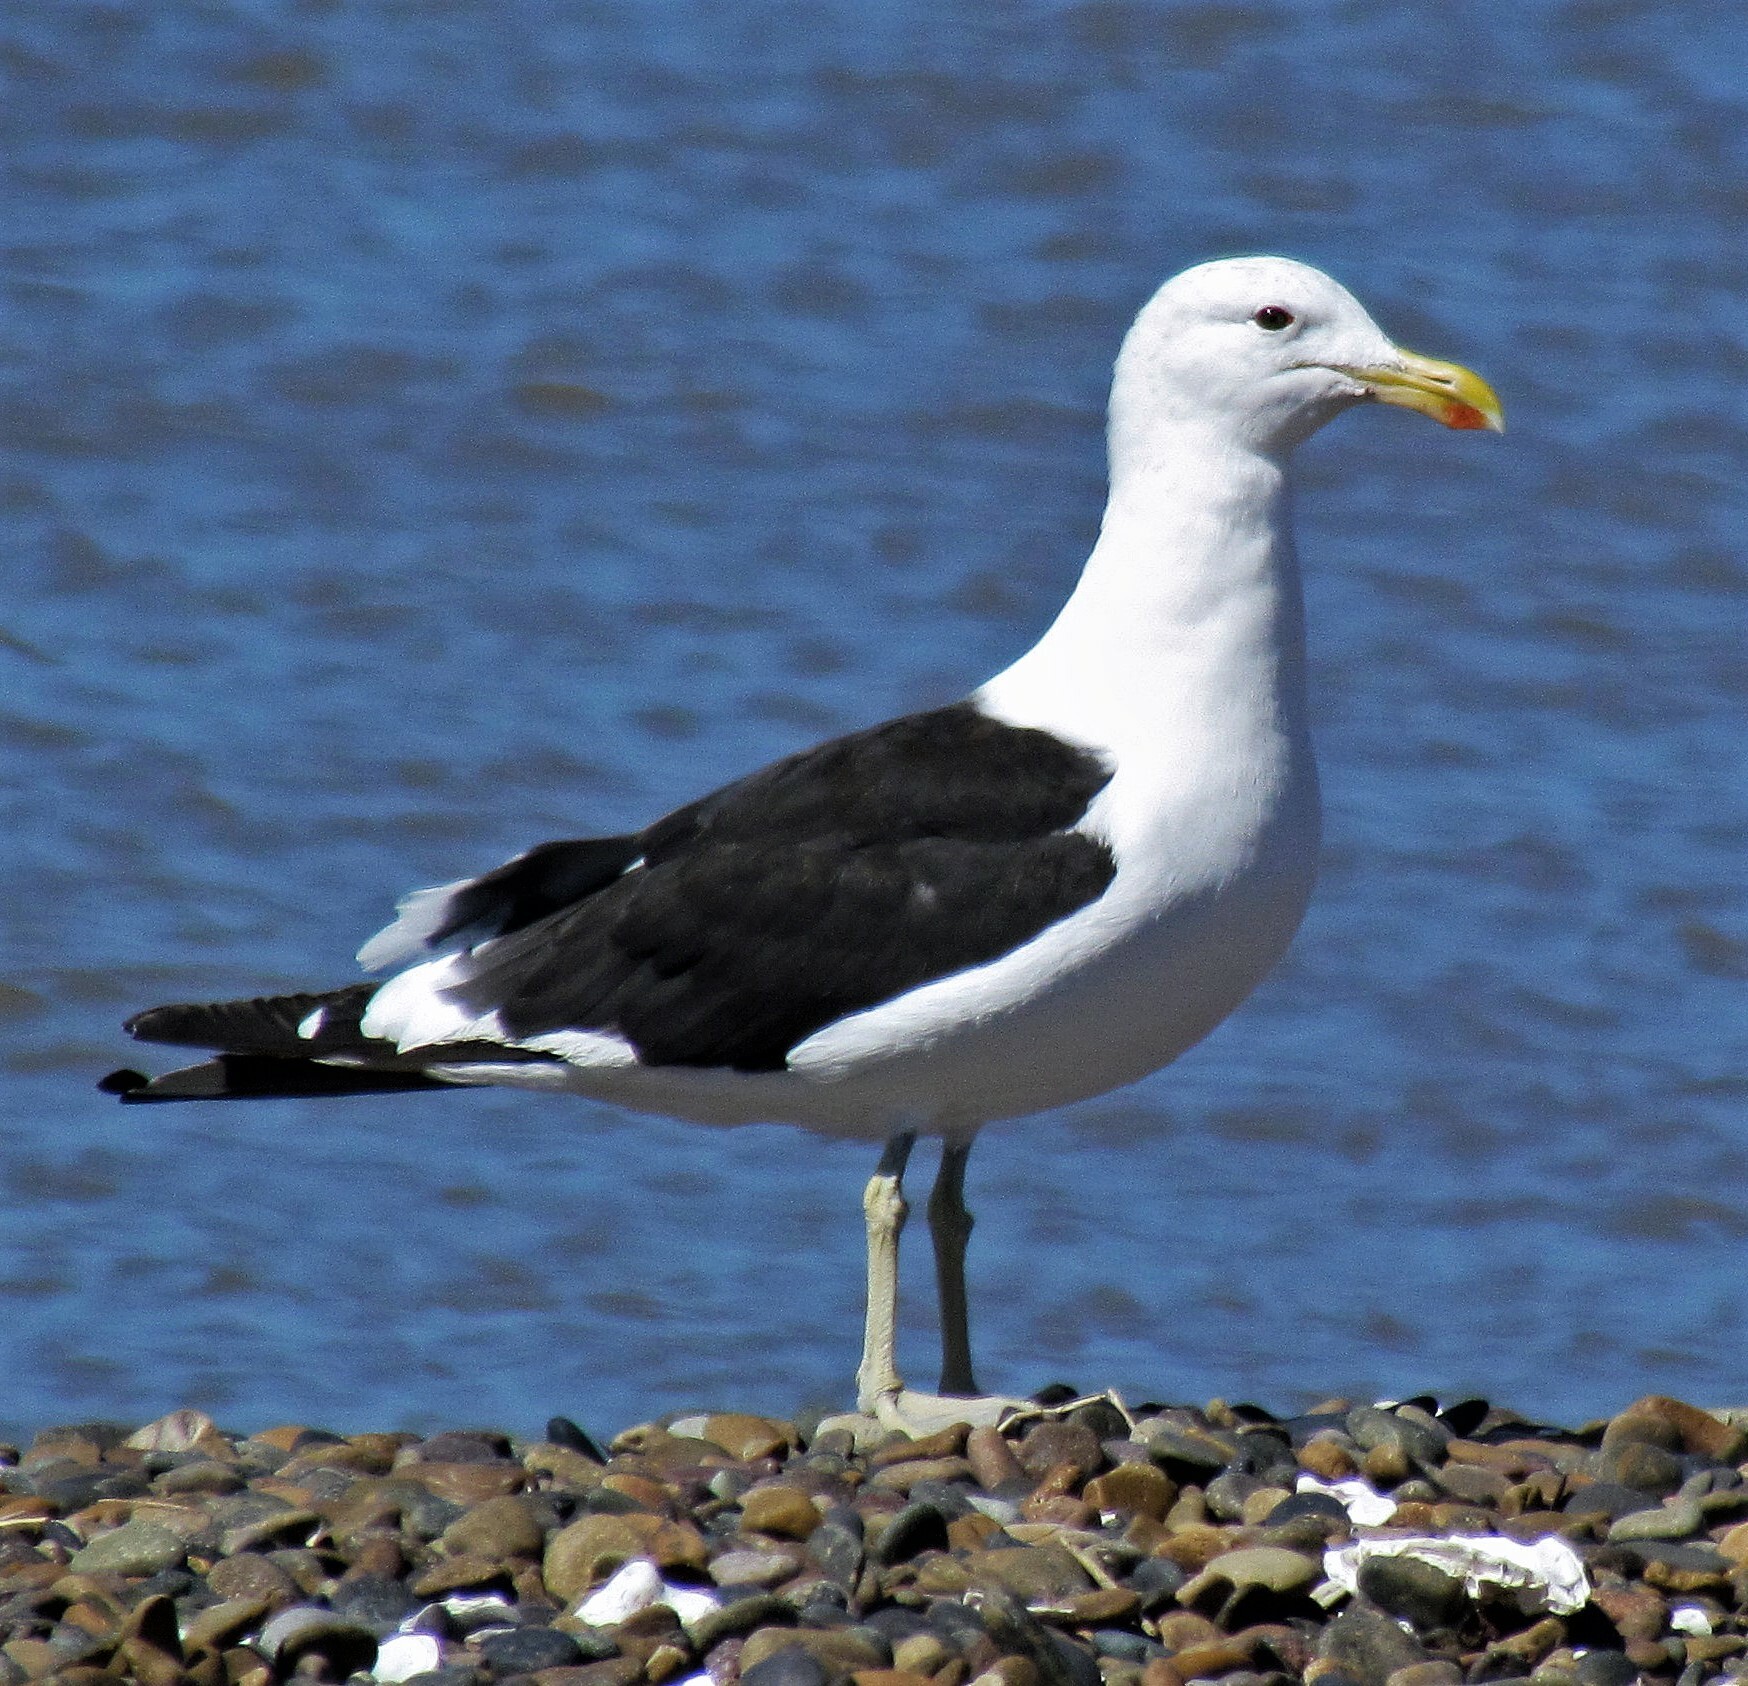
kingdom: Animalia
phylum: Chordata
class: Aves
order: Charadriiformes
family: Laridae
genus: Larus
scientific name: Larus dominicanus
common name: Kelp gull
